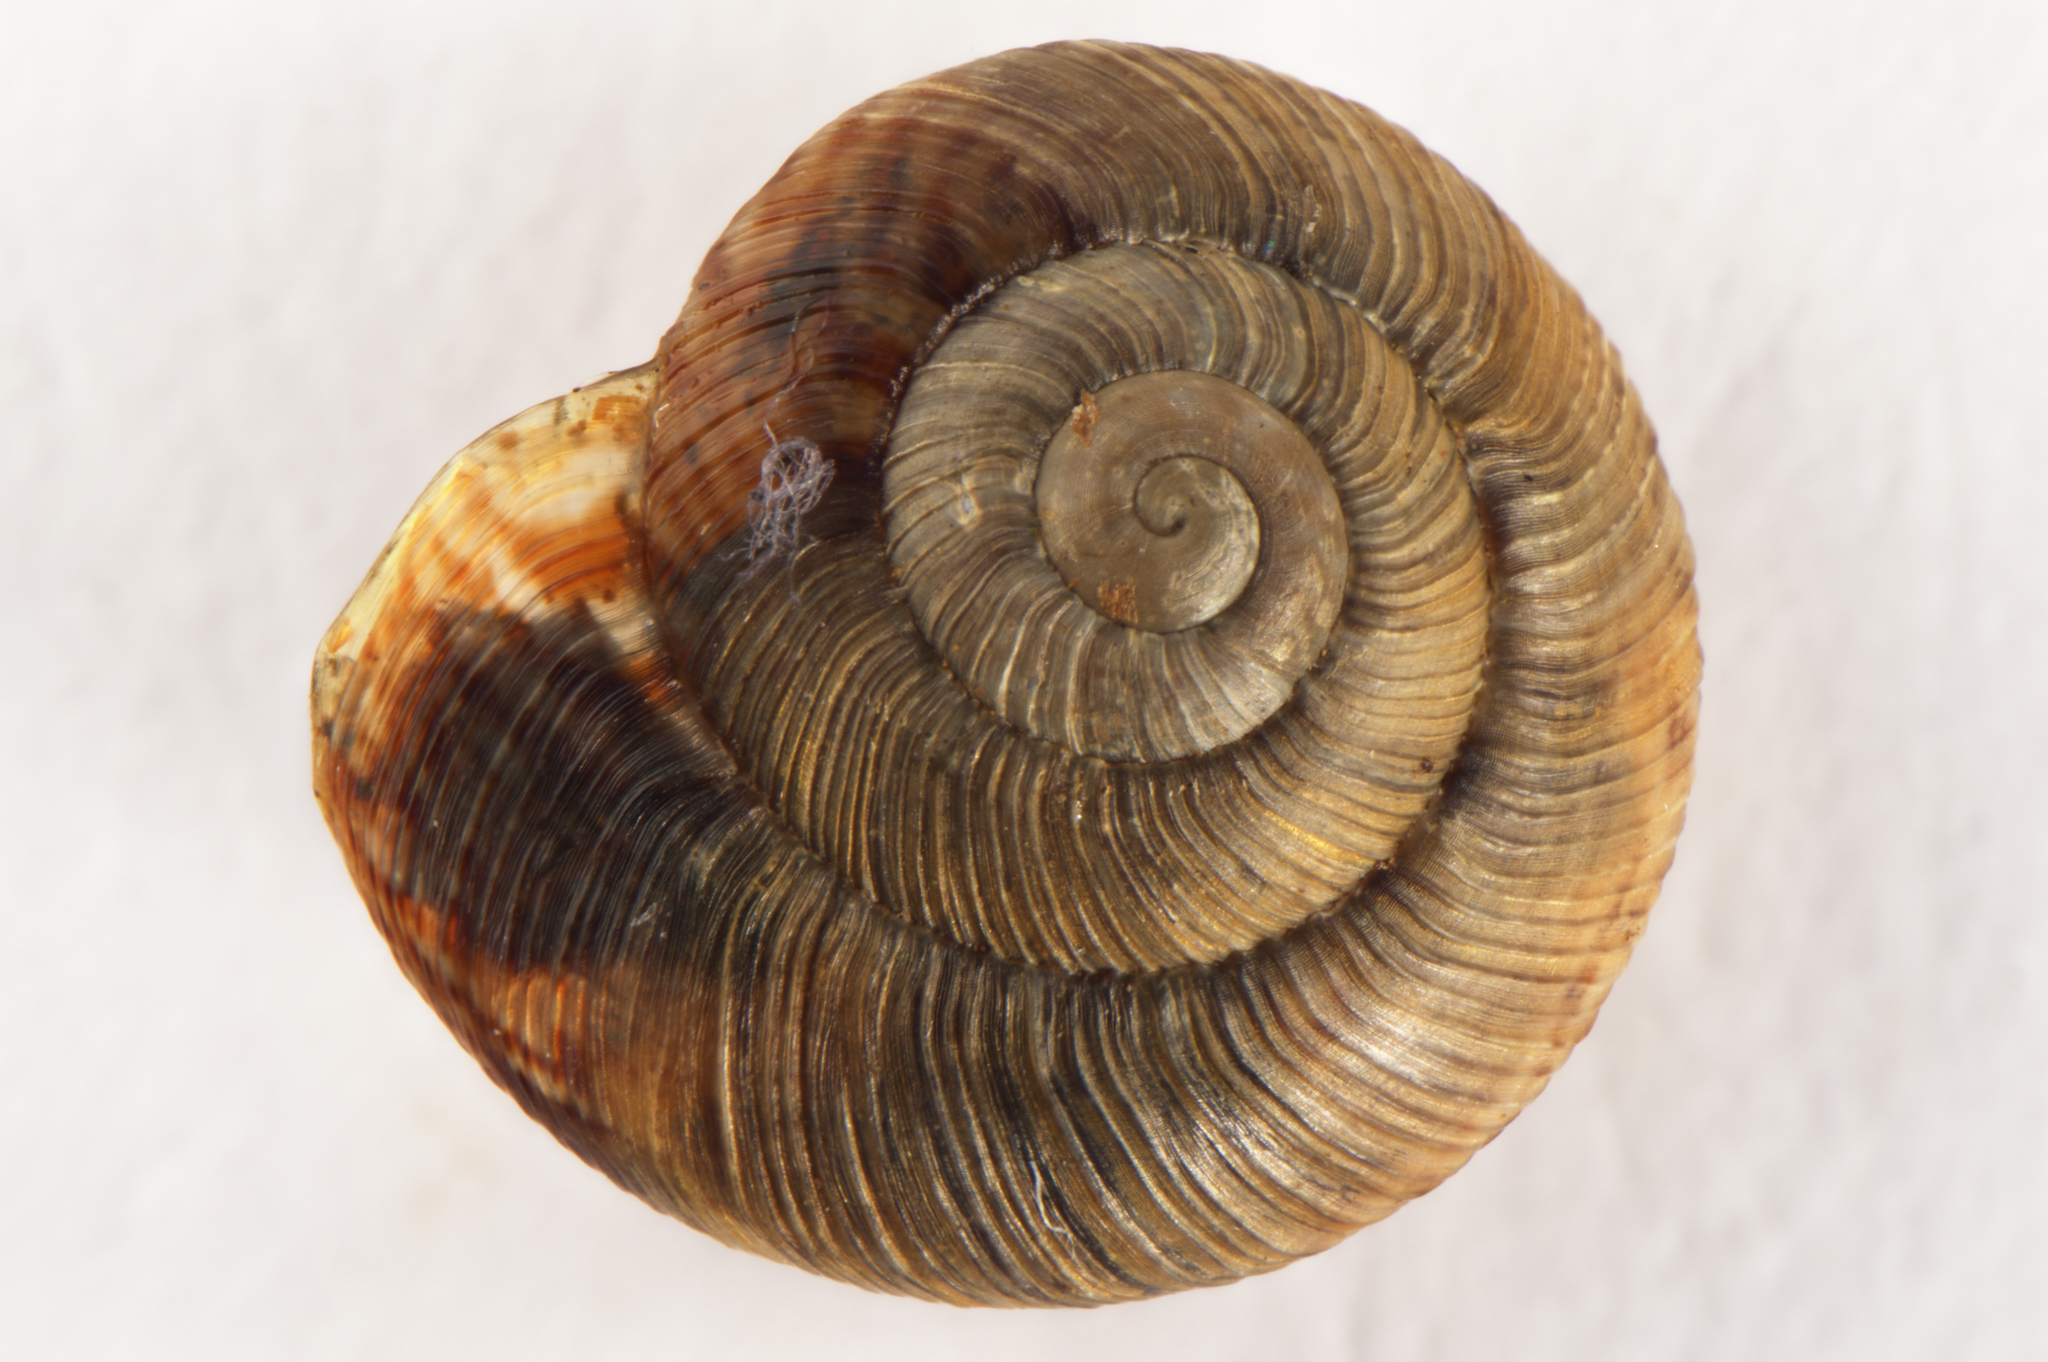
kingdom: Animalia
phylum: Mollusca
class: Gastropoda
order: Stylommatophora
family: Charopidae
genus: Therasia
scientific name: Therasia valeria
